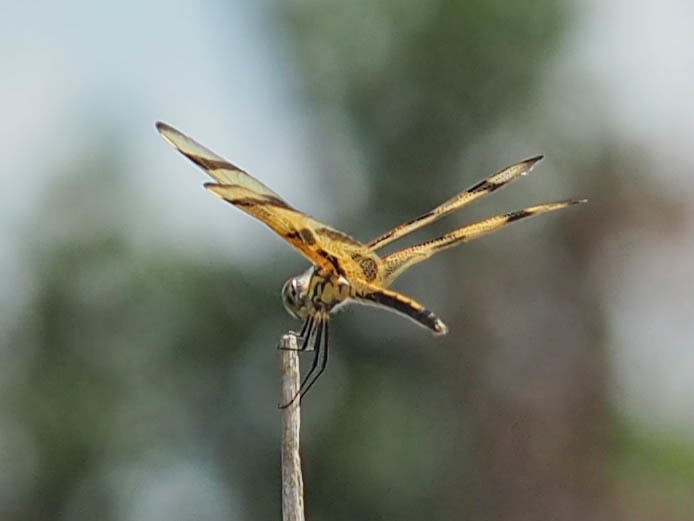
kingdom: Animalia
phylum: Arthropoda
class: Insecta
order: Odonata
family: Libellulidae
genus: Celithemis
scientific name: Celithemis eponina
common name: Halloween pennant
